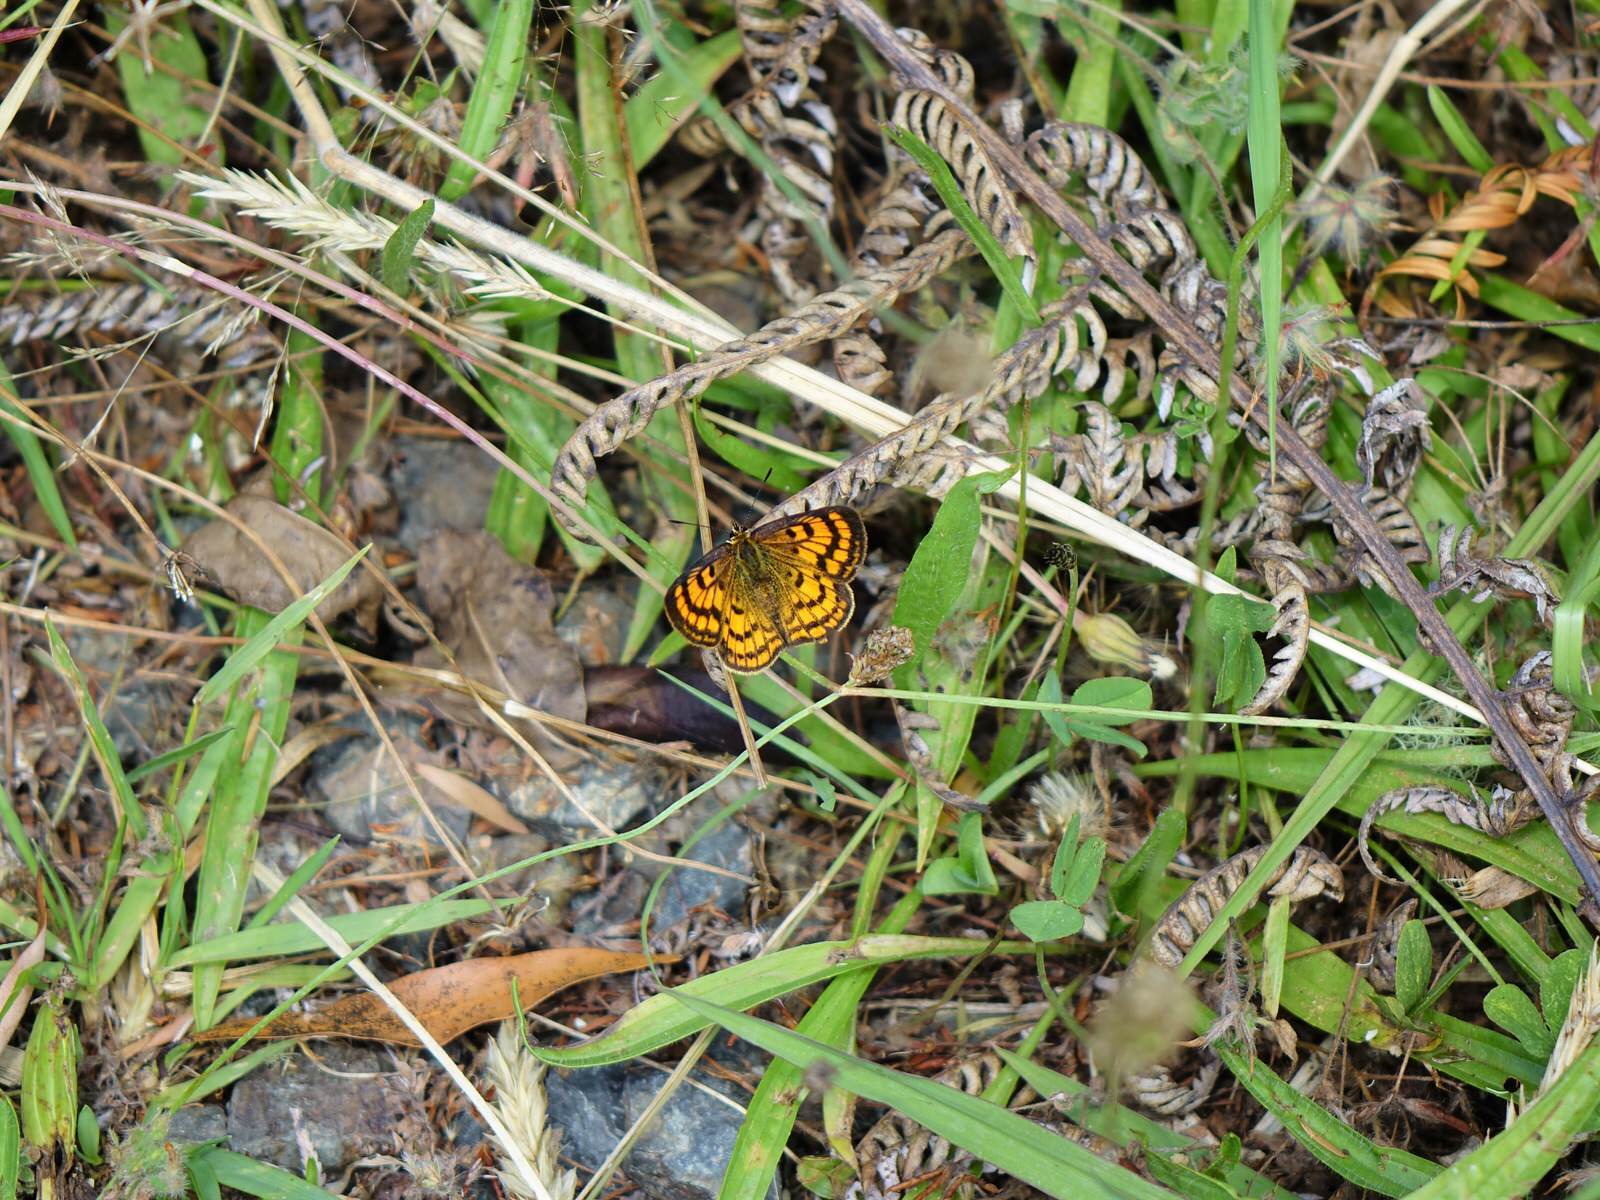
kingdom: Animalia
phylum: Arthropoda
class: Insecta
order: Lepidoptera
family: Lycaenidae
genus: Lycaena
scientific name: Lycaena salustius
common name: North island coastal copper
